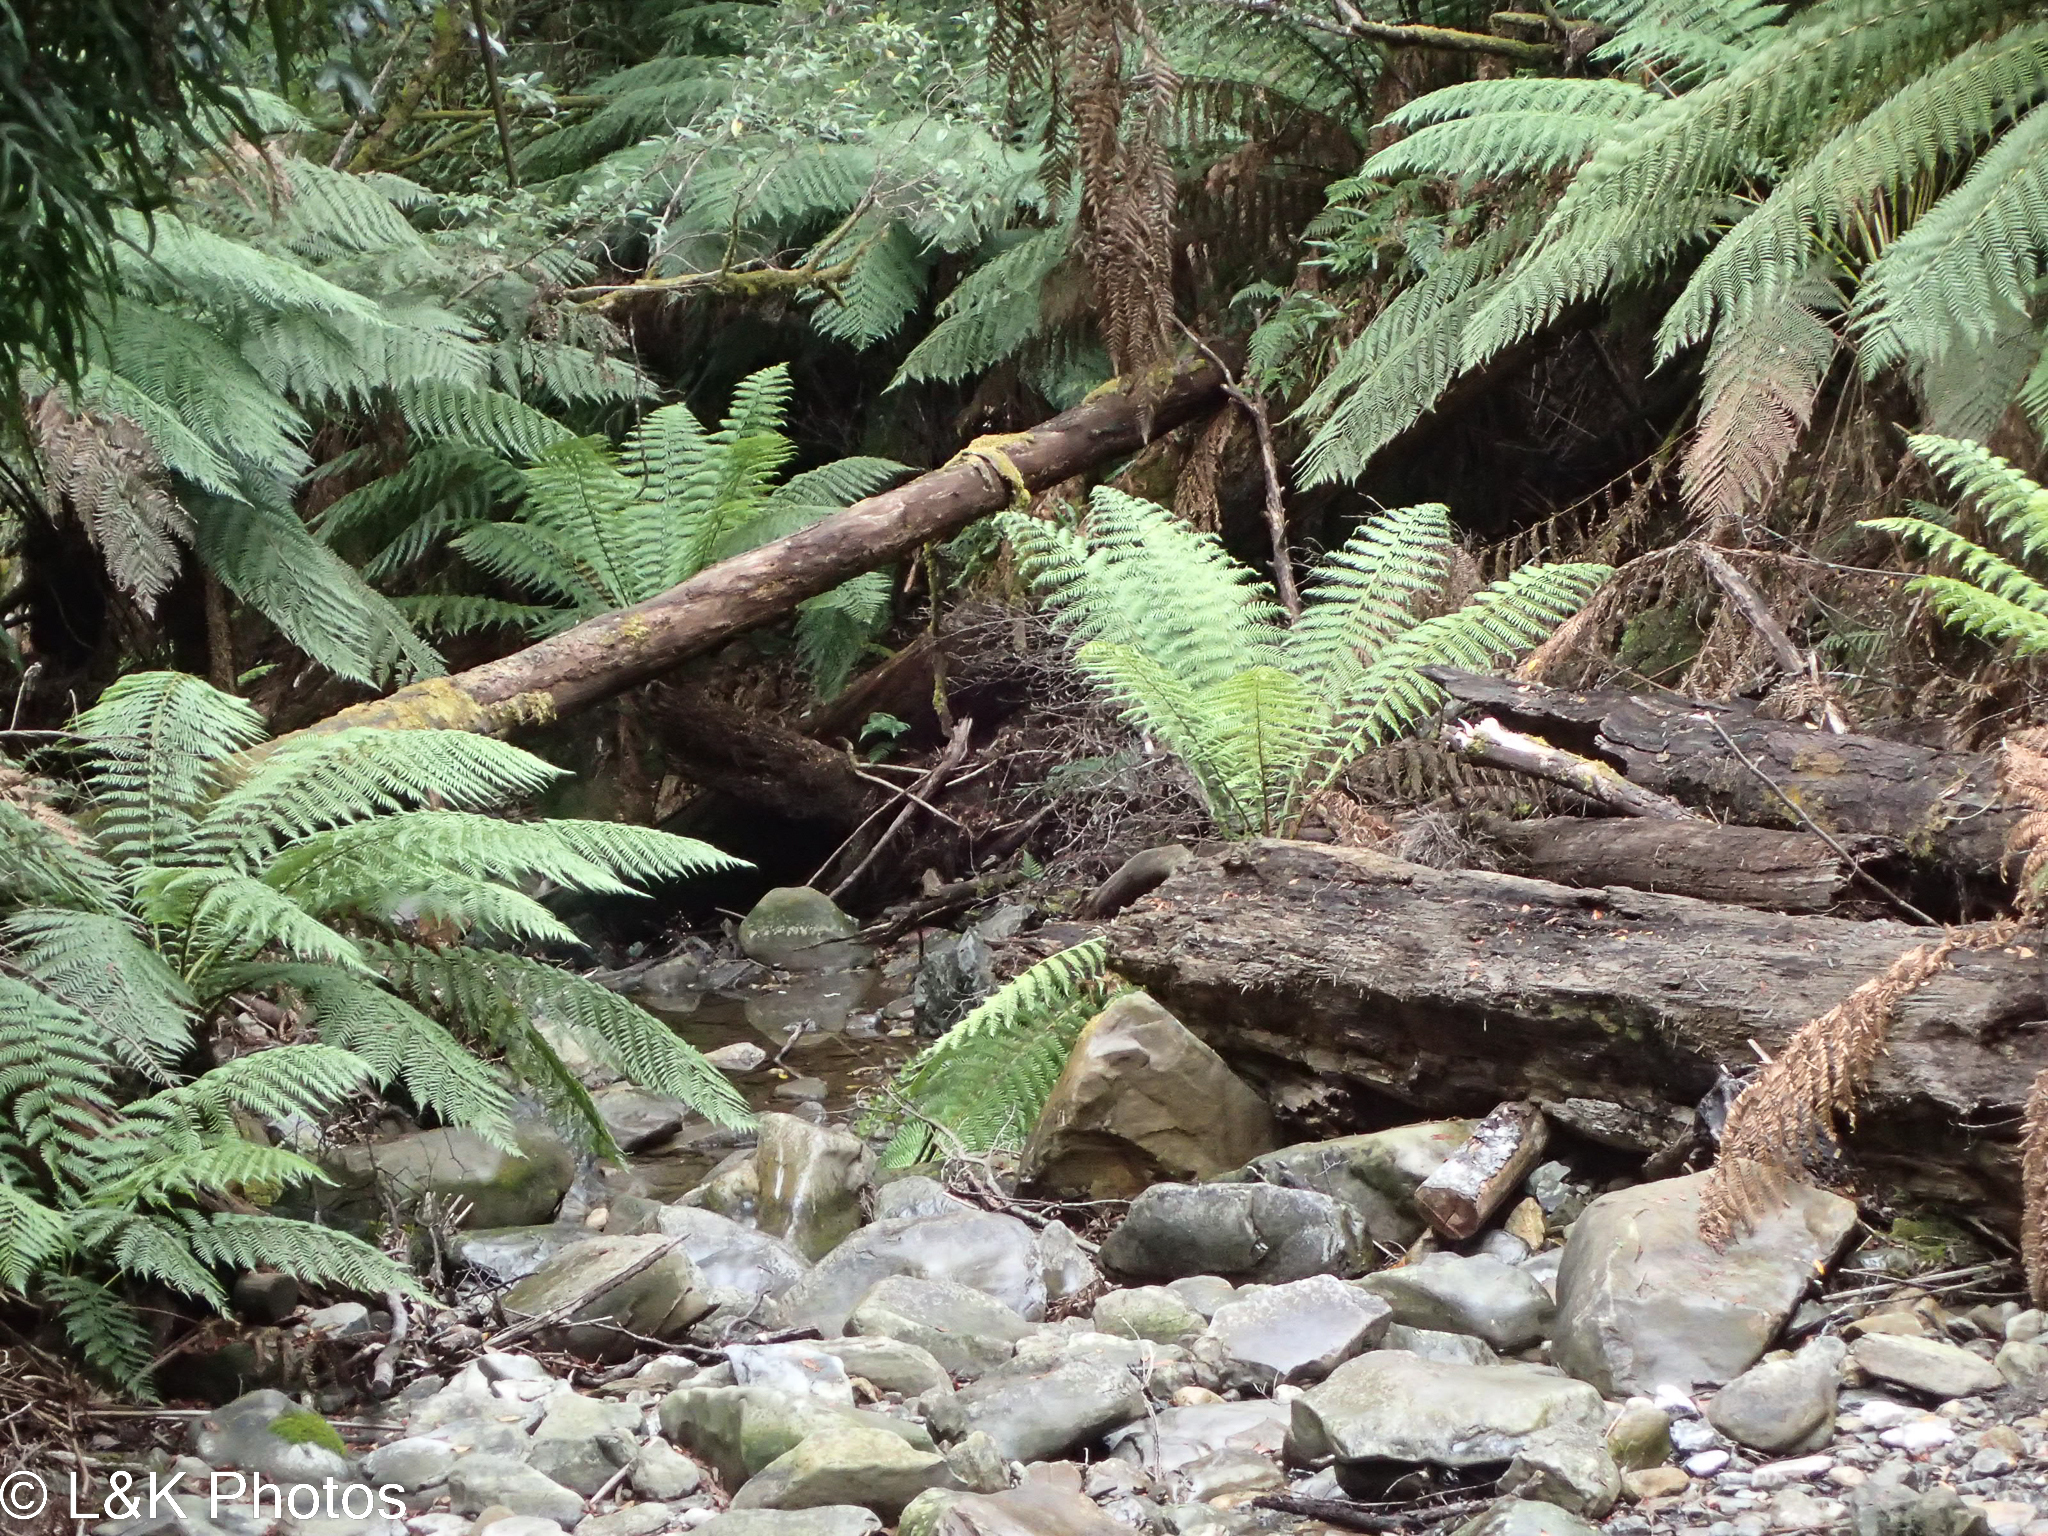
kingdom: Plantae
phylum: Tracheophyta
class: Polypodiopsida
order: Cyatheales
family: Dicksoniaceae
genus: Dicksonia
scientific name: Dicksonia antarctica
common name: Australian treefern
